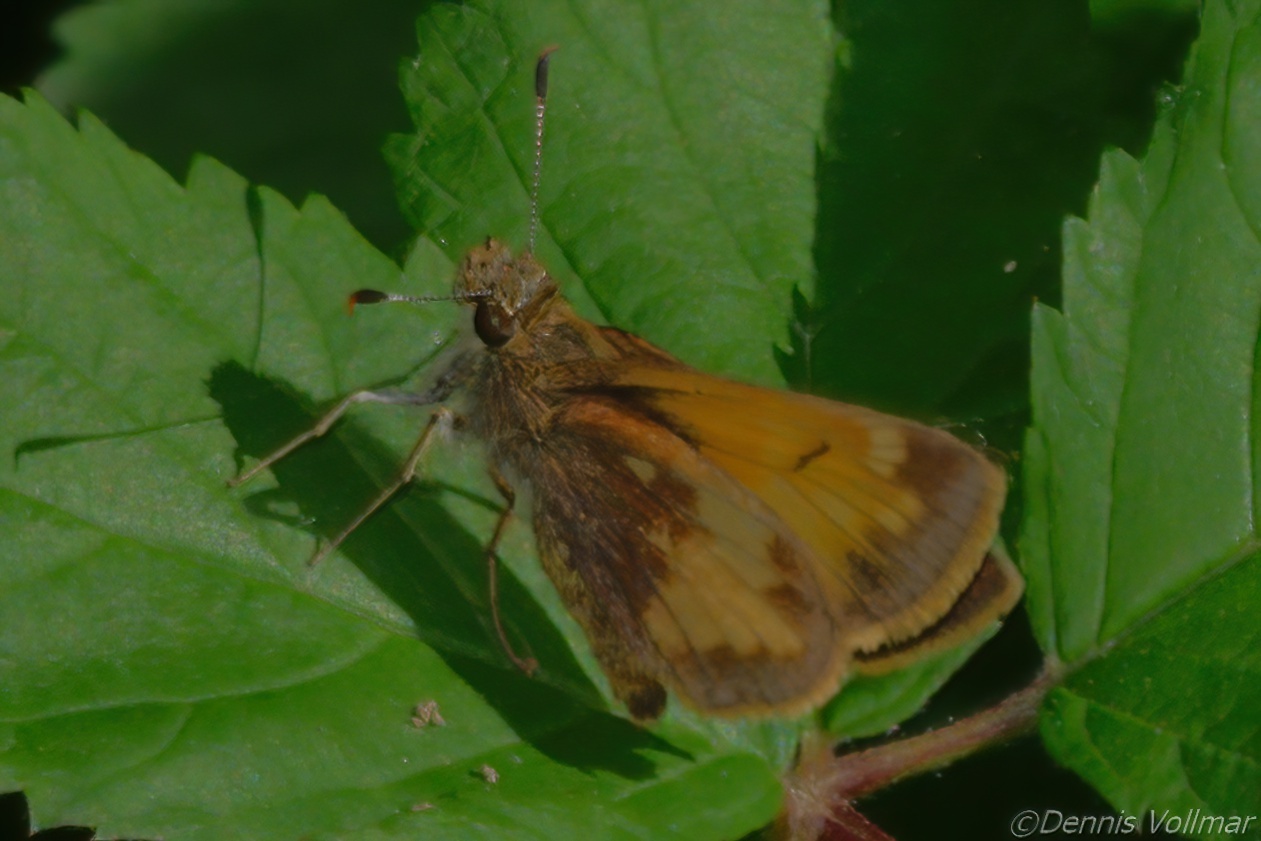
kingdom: Animalia
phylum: Arthropoda
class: Insecta
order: Lepidoptera
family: Hesperiidae
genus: Lon
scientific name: Lon hobomok
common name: Hobomok skipper
